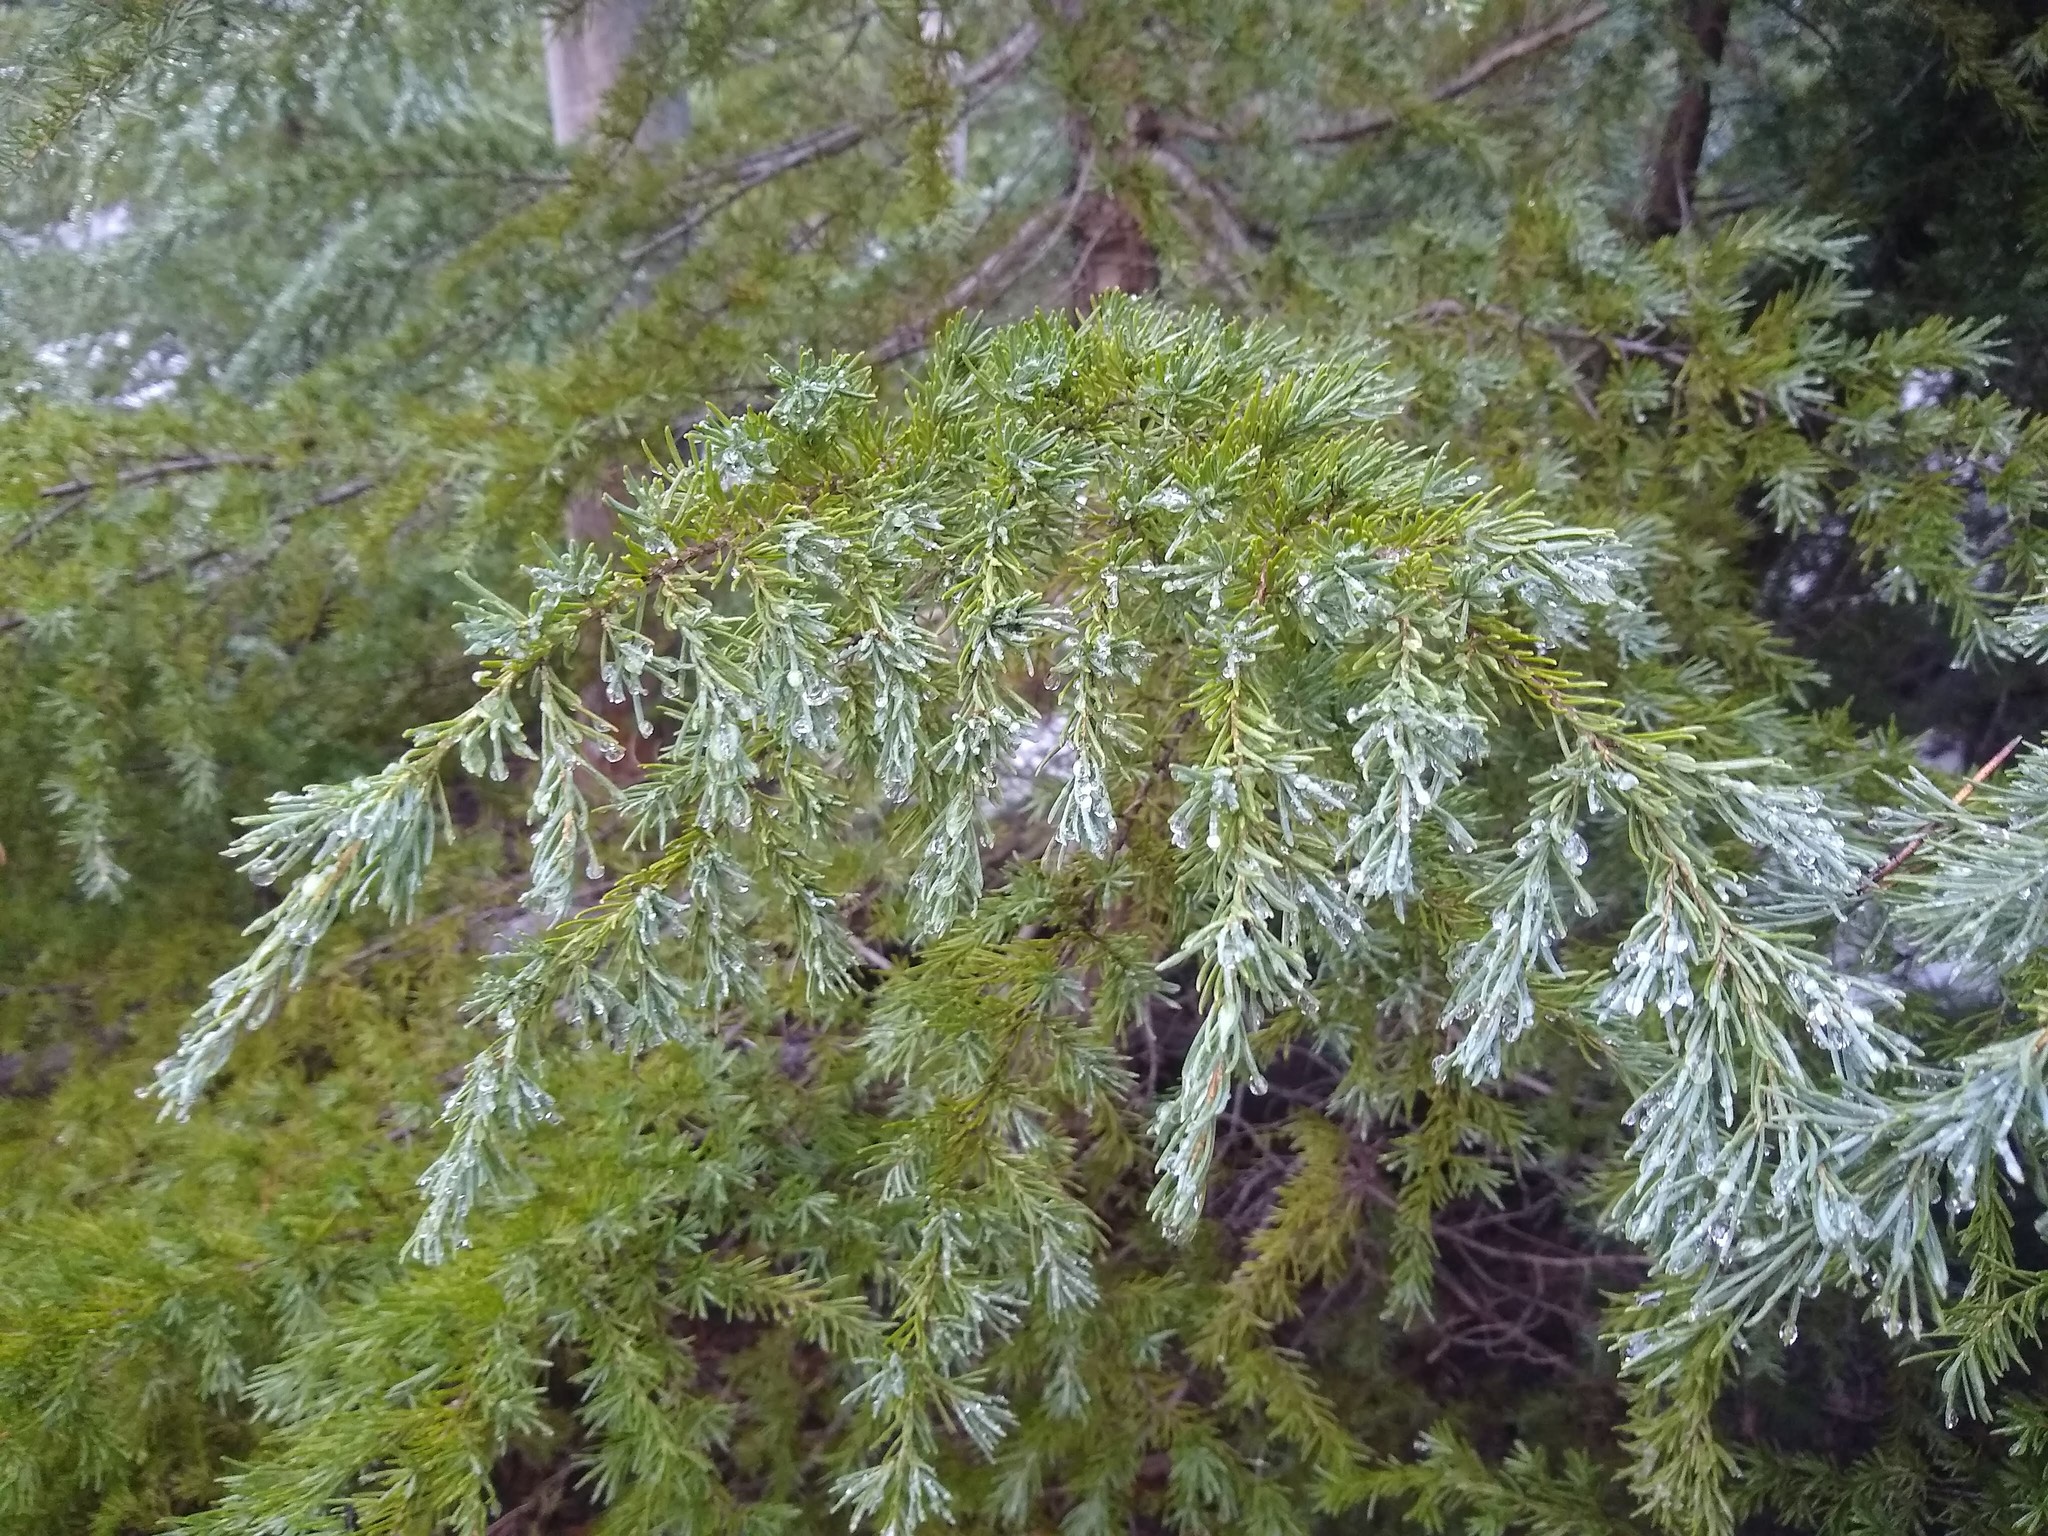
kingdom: Plantae
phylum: Tracheophyta
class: Pinopsida
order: Pinales
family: Pinaceae
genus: Tsuga
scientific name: Tsuga mertensiana
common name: Mountain hemlock
